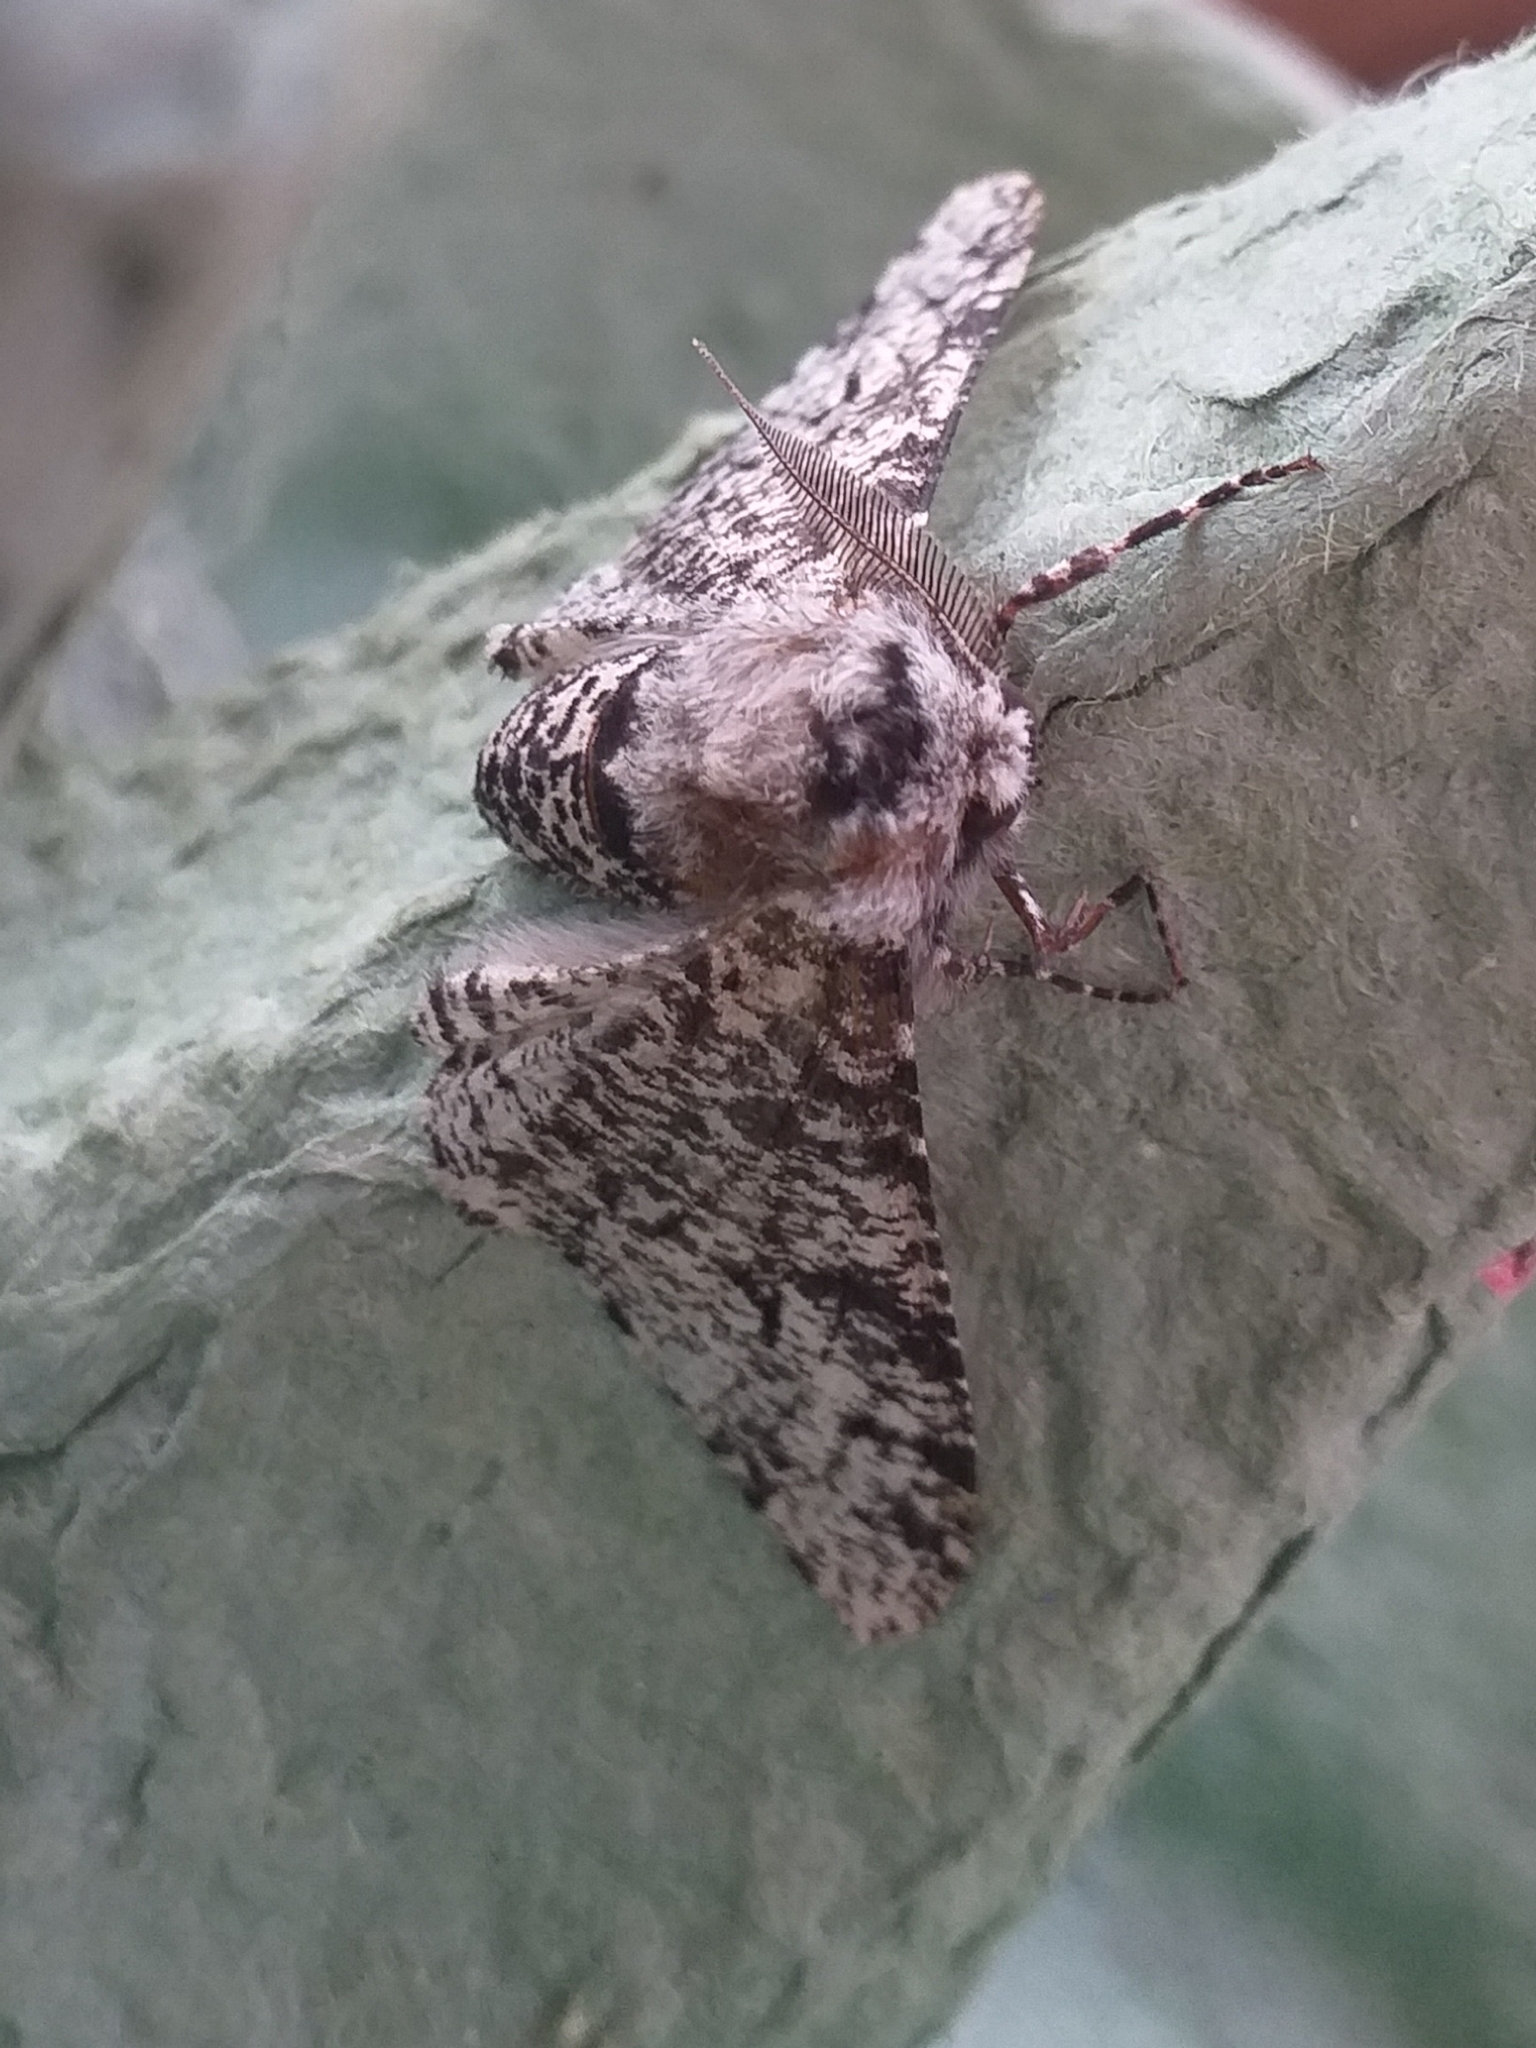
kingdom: Animalia
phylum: Arthropoda
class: Insecta
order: Lepidoptera
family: Geometridae
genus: Biston
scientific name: Biston betularia
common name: Peppered moth
